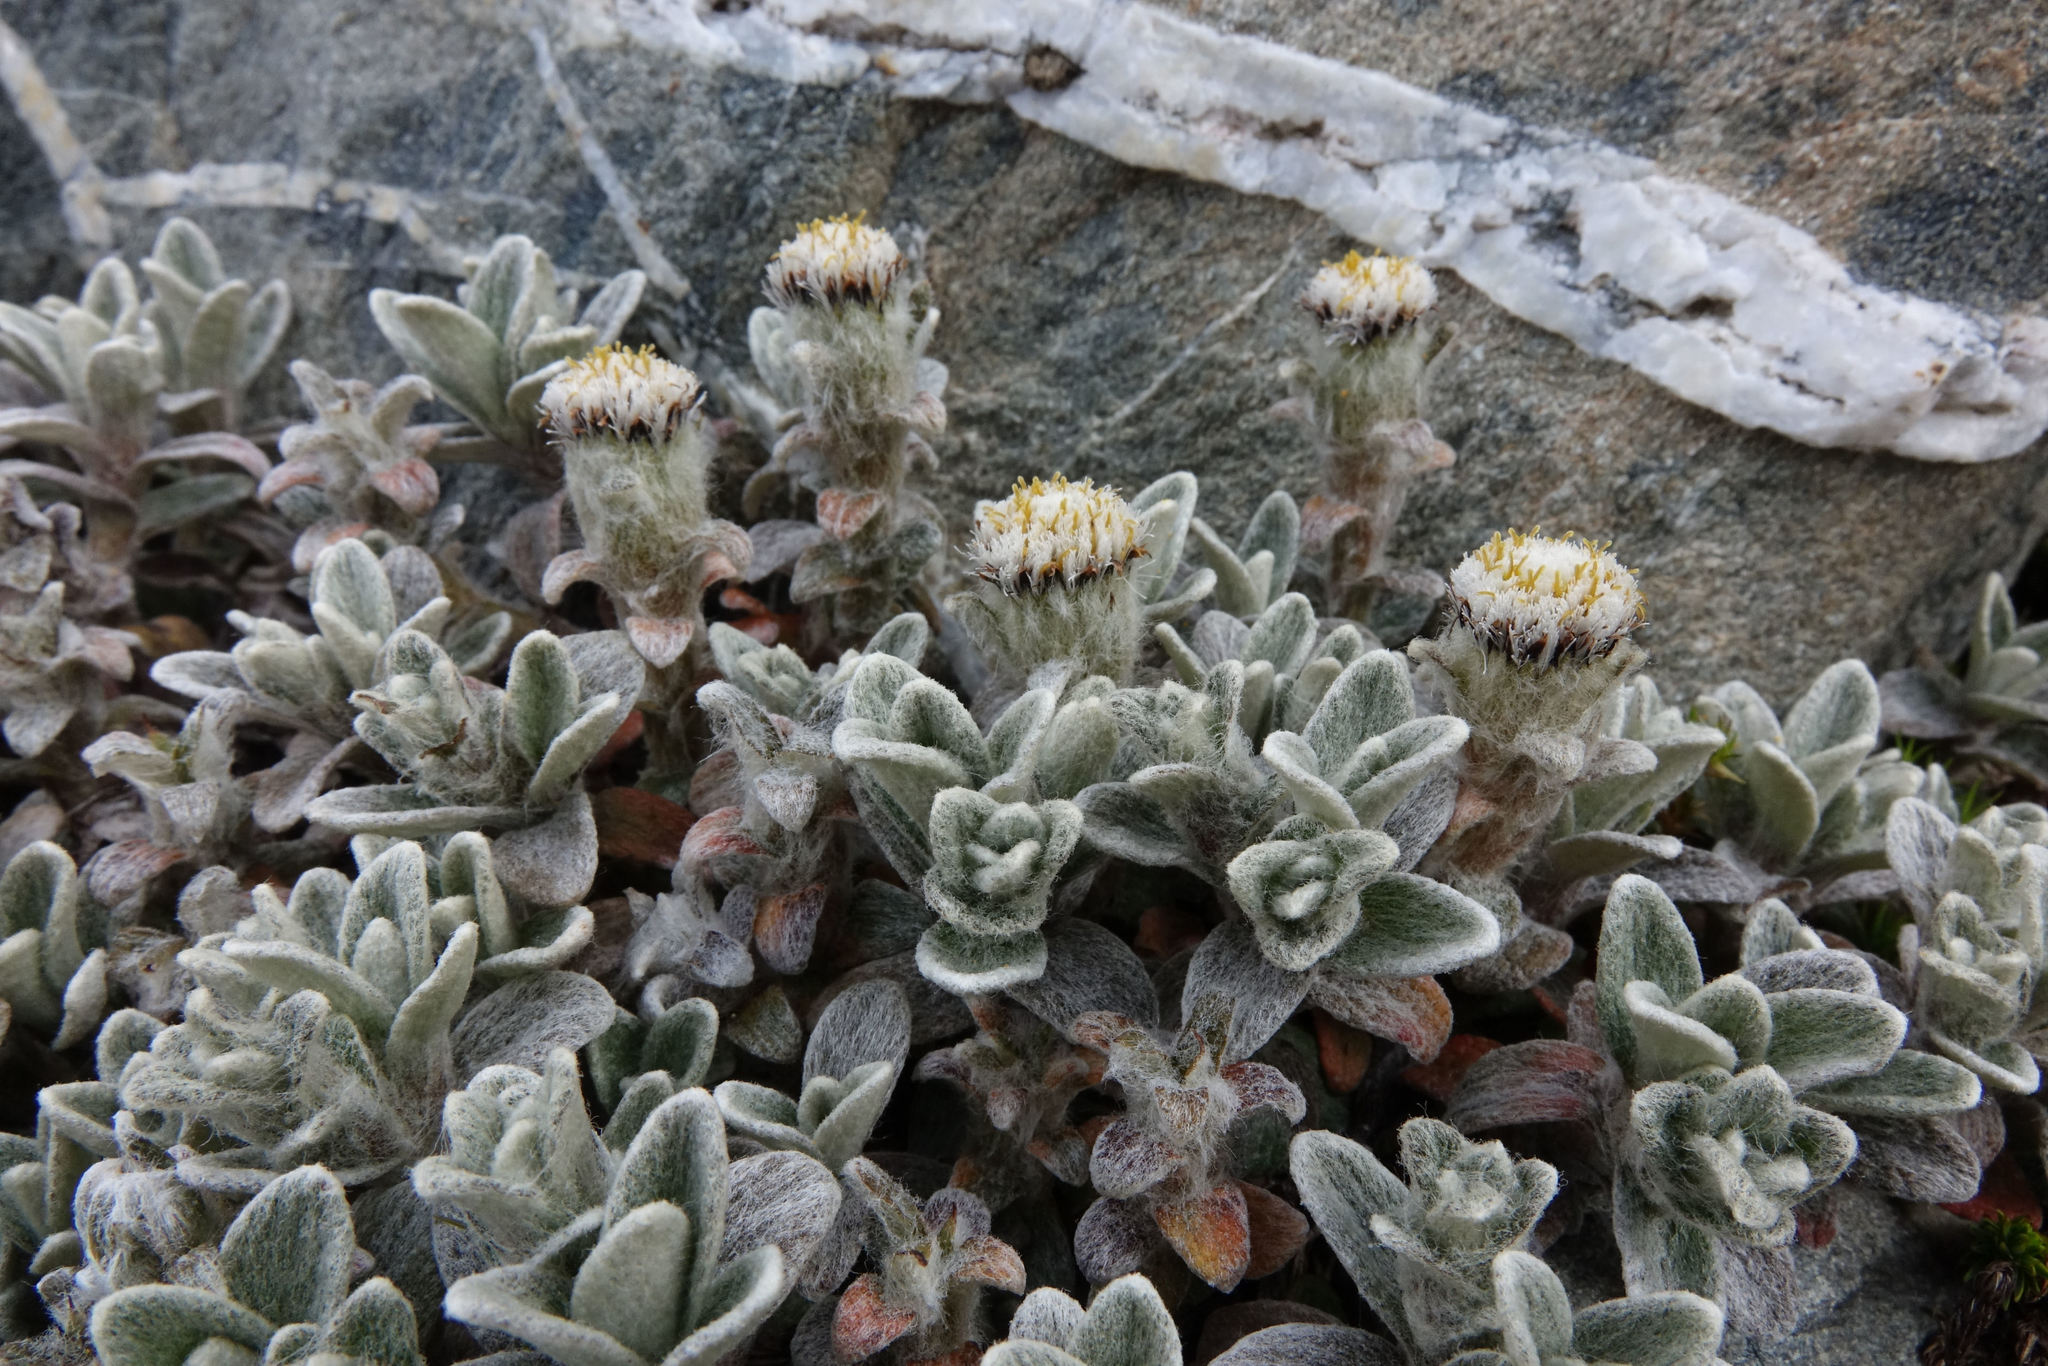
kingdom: Plantae
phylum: Tracheophyta
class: Magnoliopsida
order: Asterales
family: Asteraceae
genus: Haastia
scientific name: Haastia sinclairii
